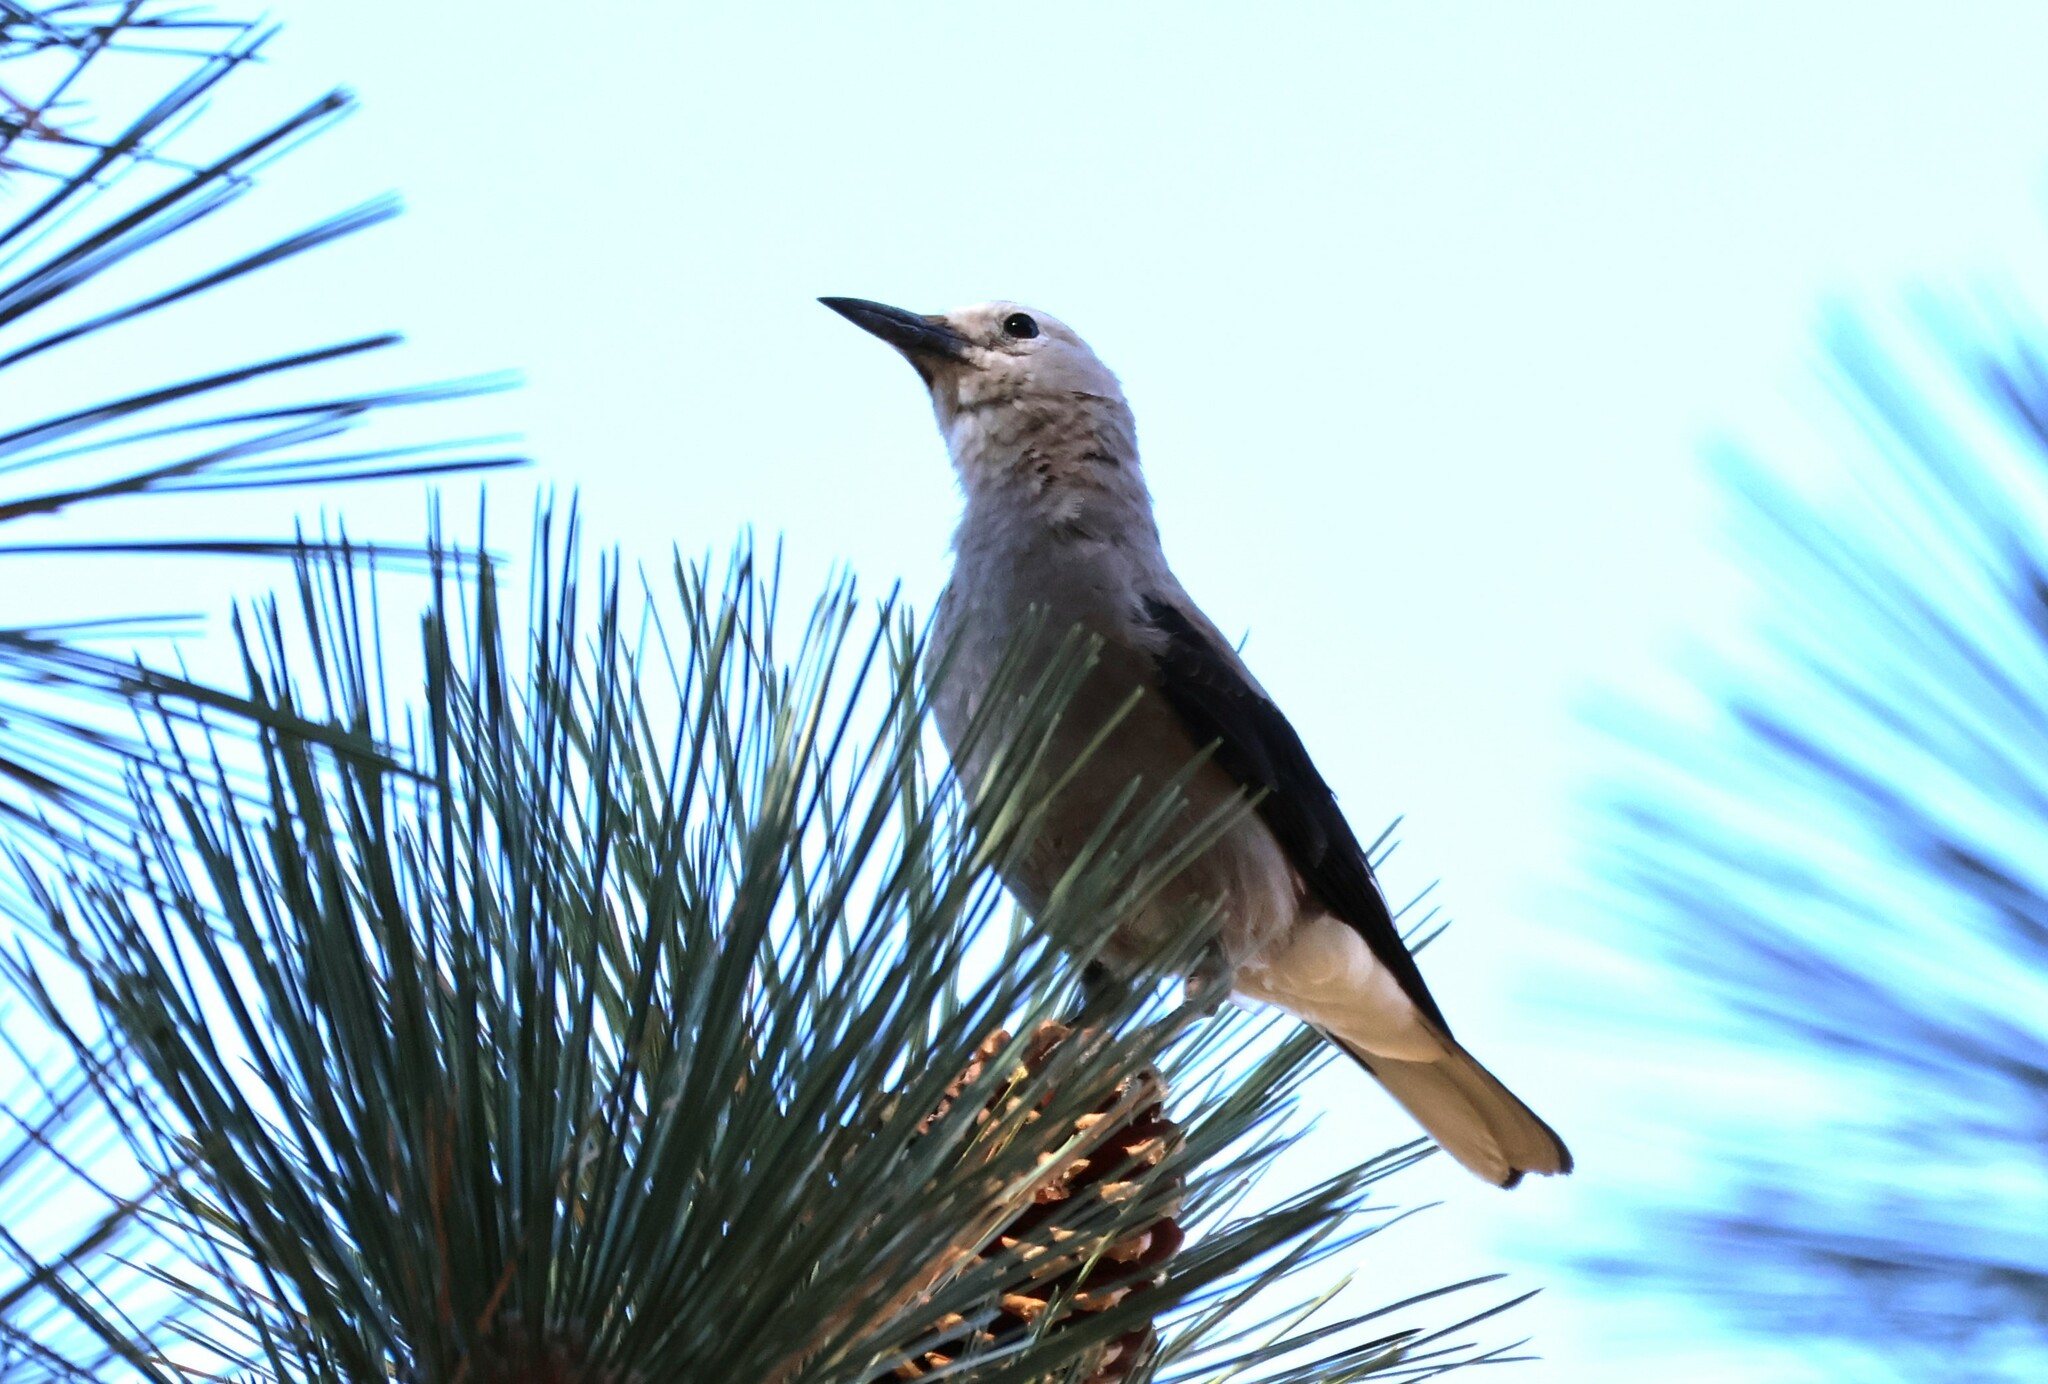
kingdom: Animalia
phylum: Chordata
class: Aves
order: Passeriformes
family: Corvidae
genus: Nucifraga
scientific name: Nucifraga columbiana
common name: Clark's nutcracker
